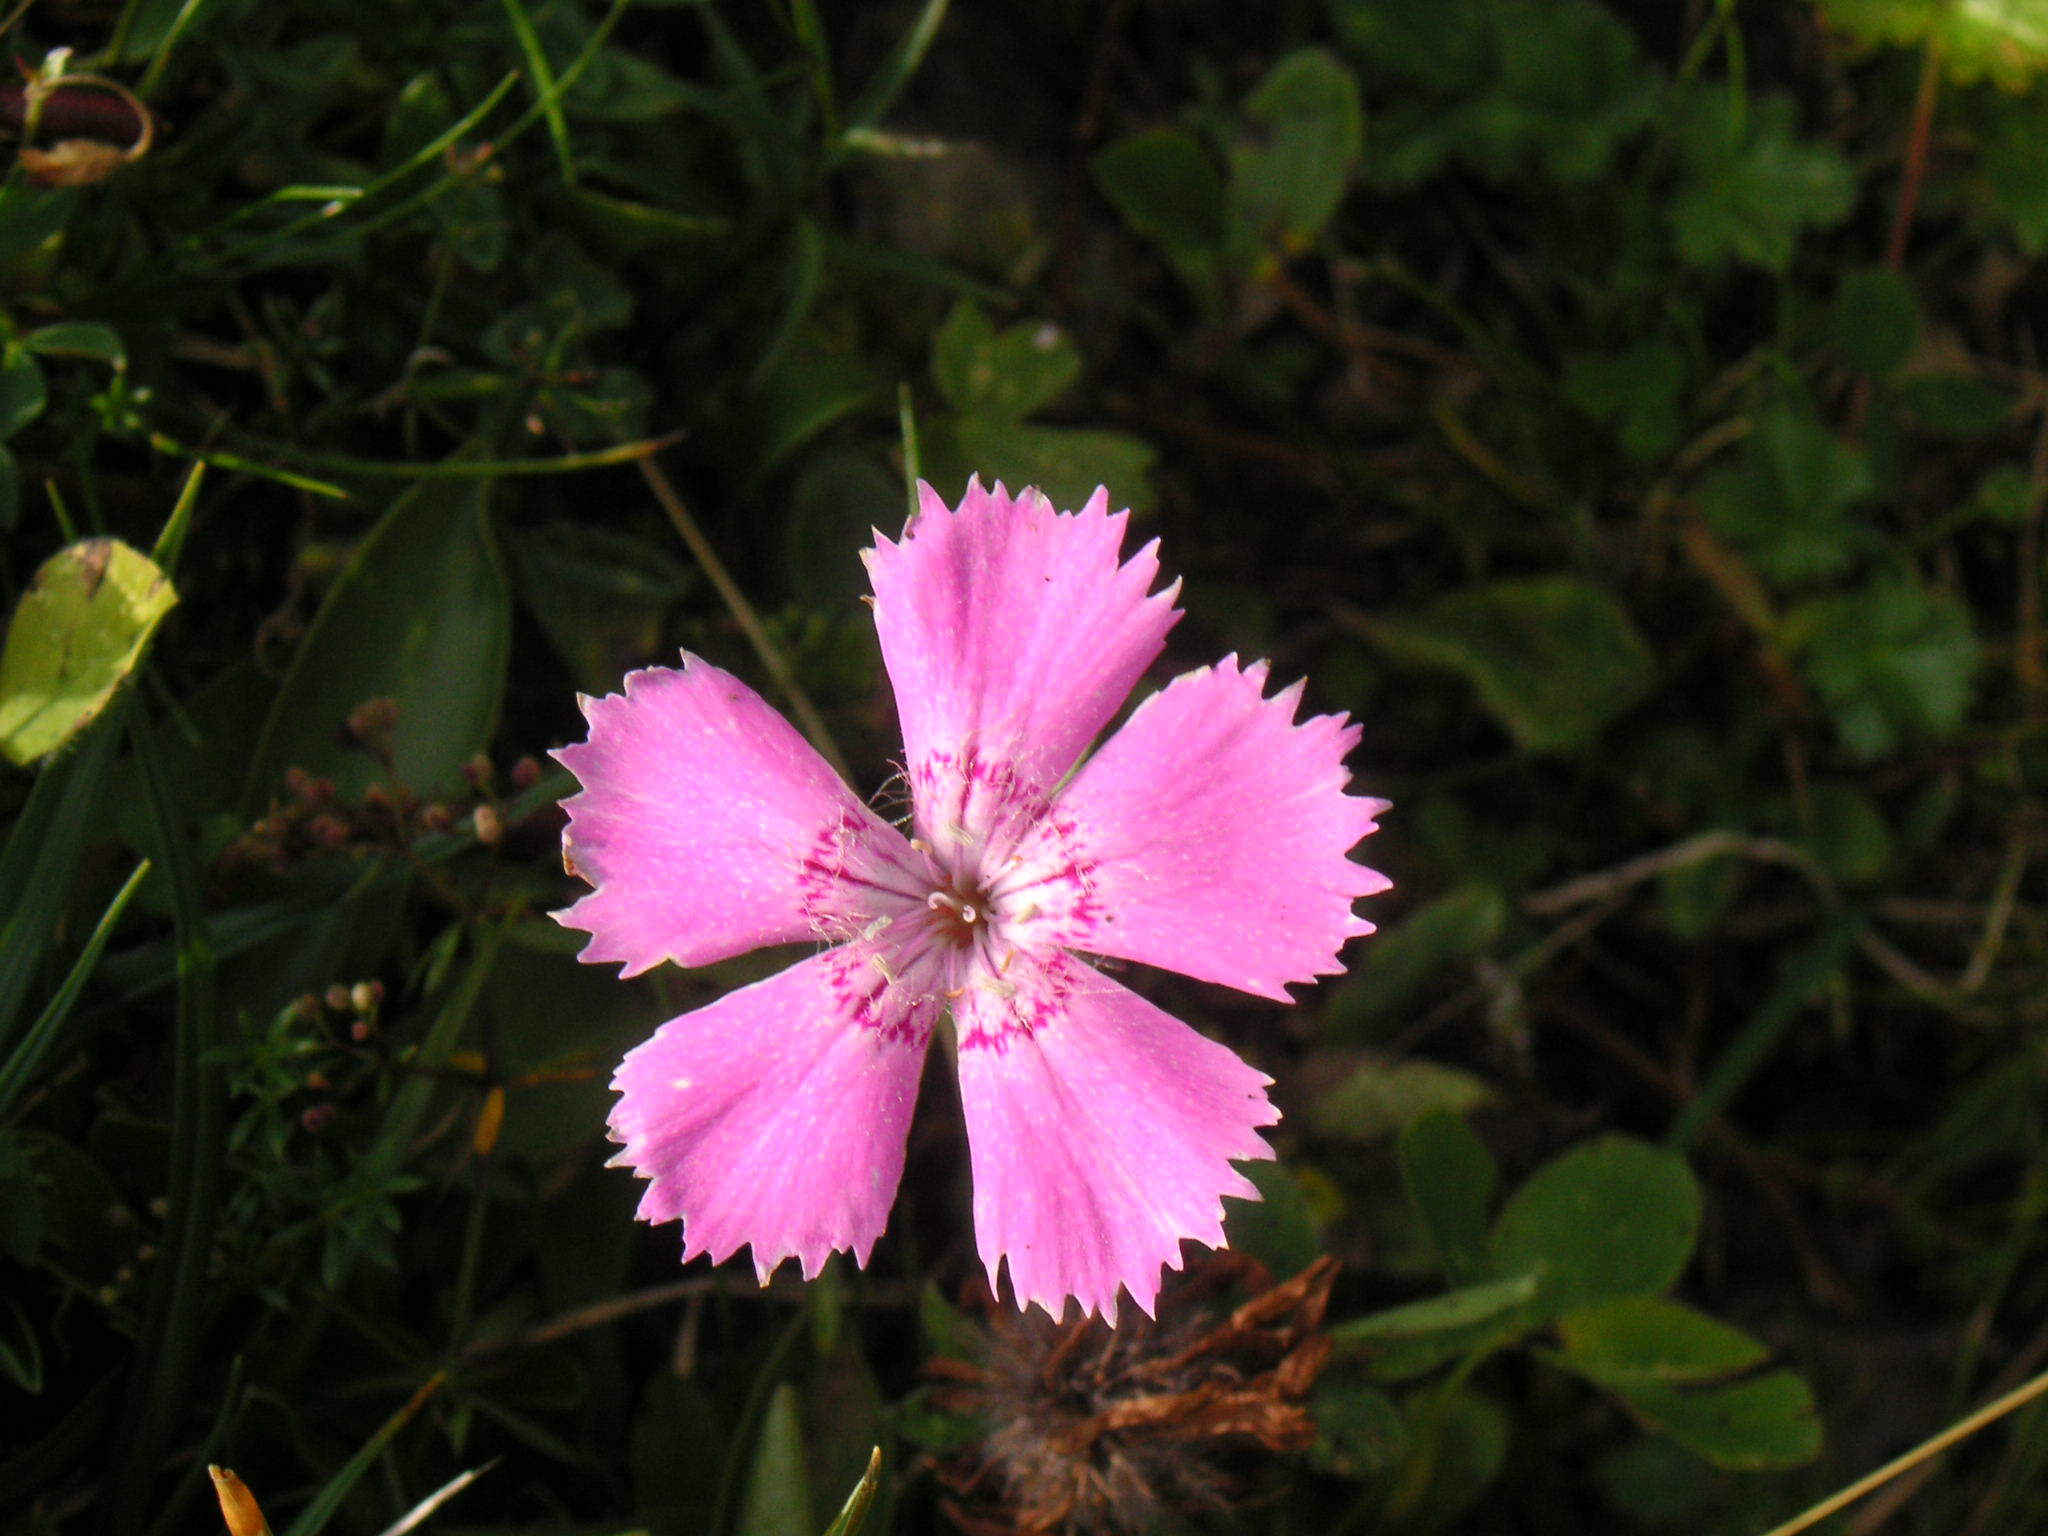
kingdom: Plantae
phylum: Tracheophyta
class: Magnoliopsida
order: Caryophyllales
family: Caryophyllaceae
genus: Dianthus
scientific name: Dianthus alpinus
